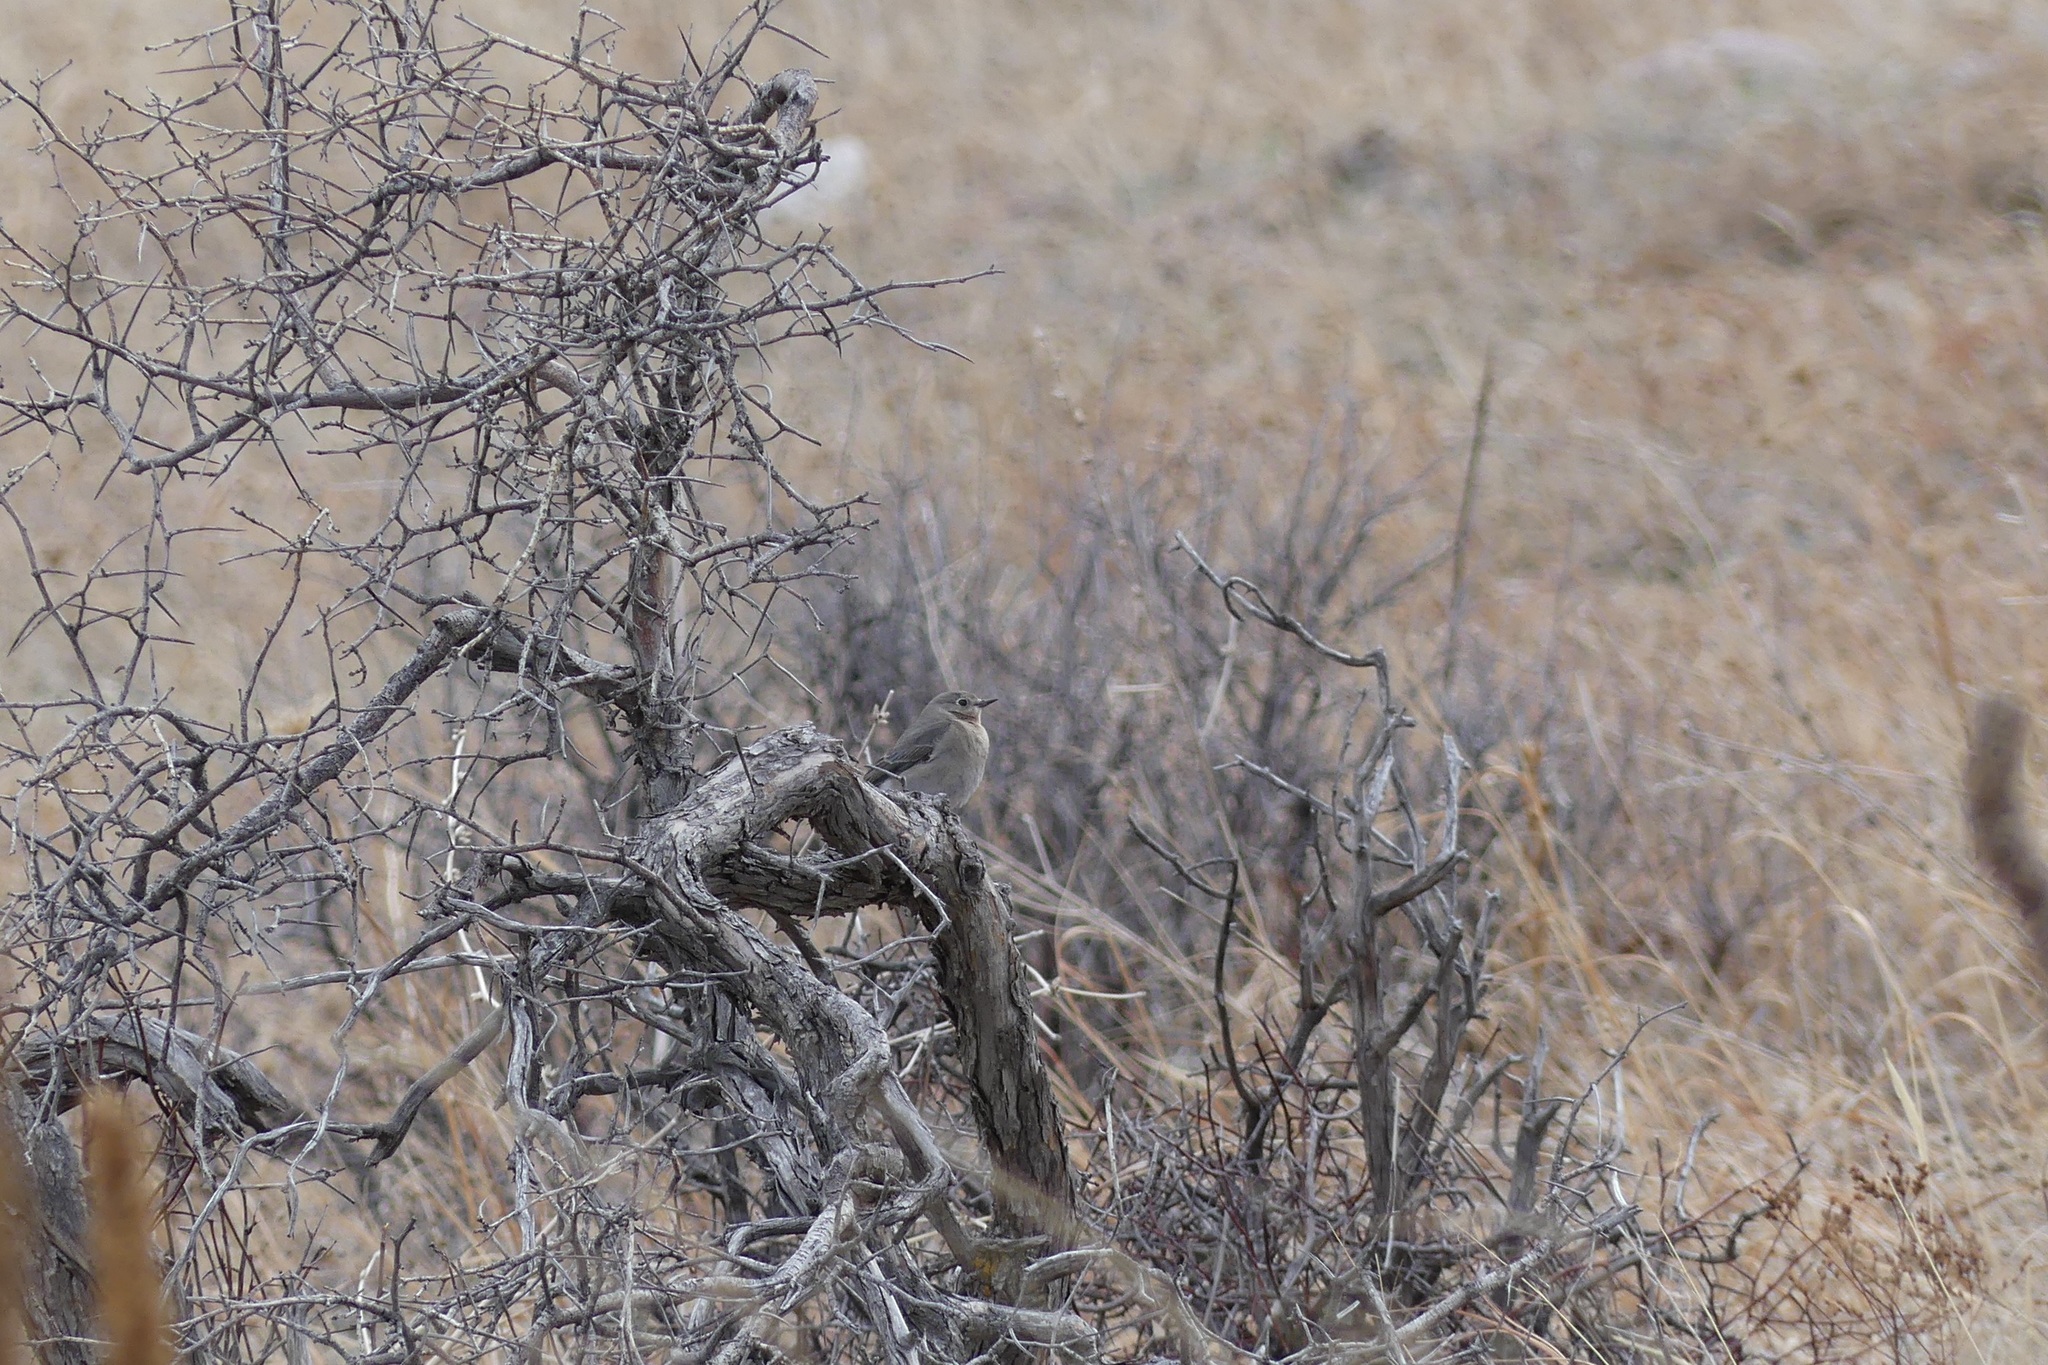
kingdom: Animalia
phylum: Chordata
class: Aves
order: Passeriformes
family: Turdidae
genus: Sialia
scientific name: Sialia currucoides
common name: Mountain bluebird
